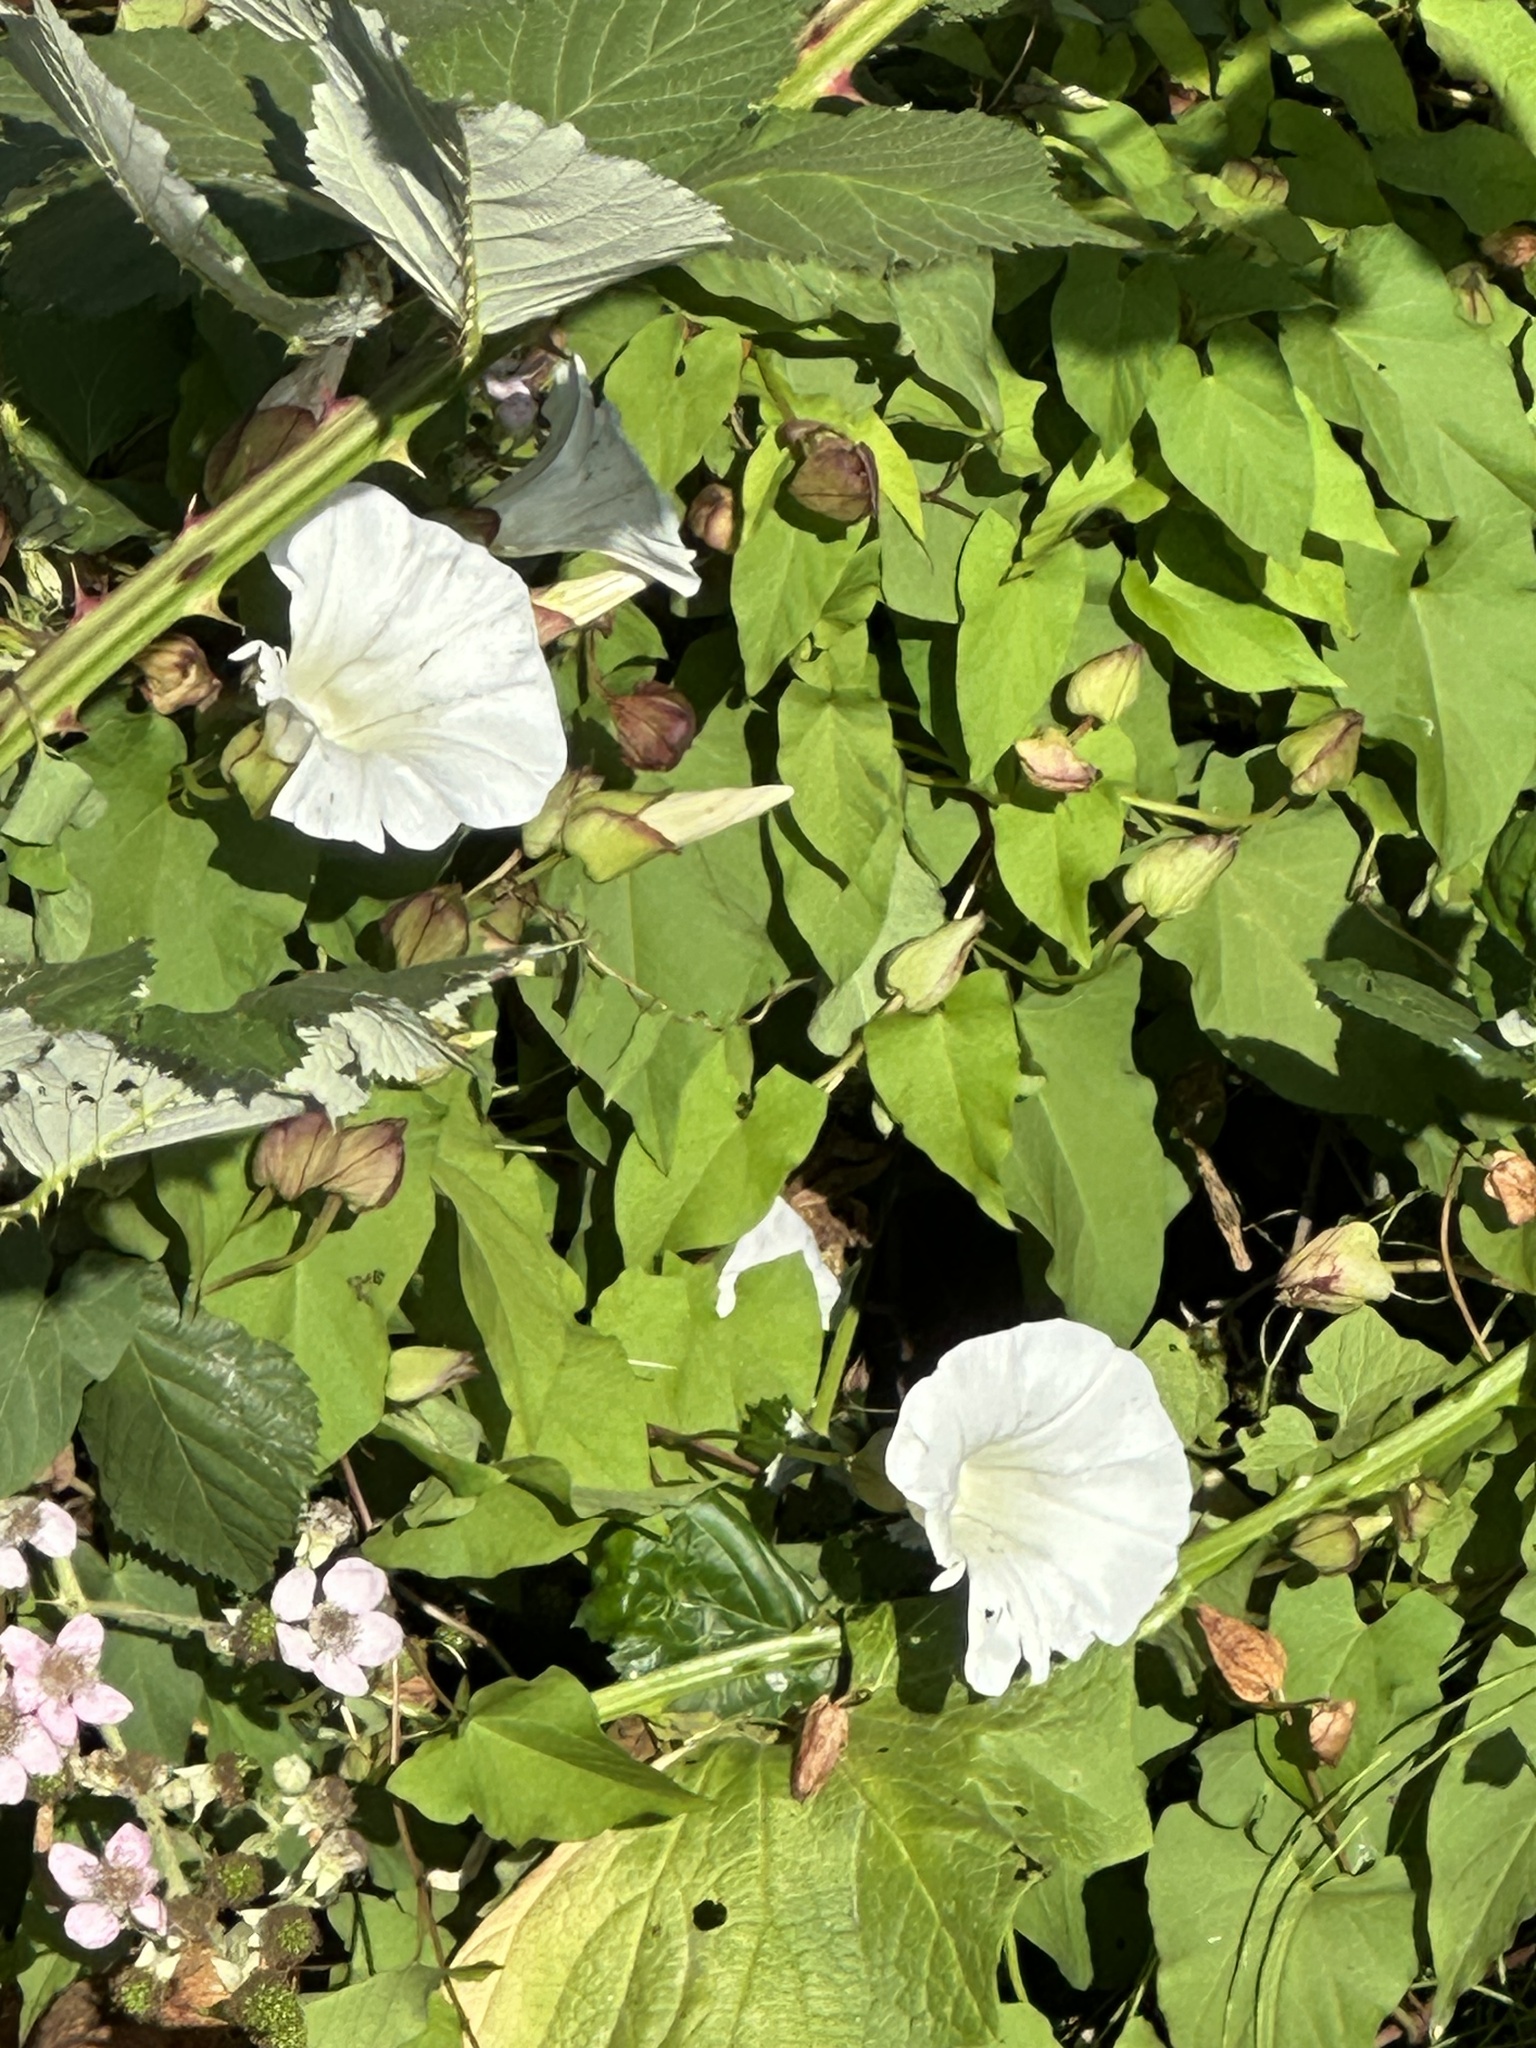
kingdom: Plantae
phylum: Tracheophyta
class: Magnoliopsida
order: Solanales
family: Convolvulaceae
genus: Calystegia
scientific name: Calystegia silvatica
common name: Large bindweed
